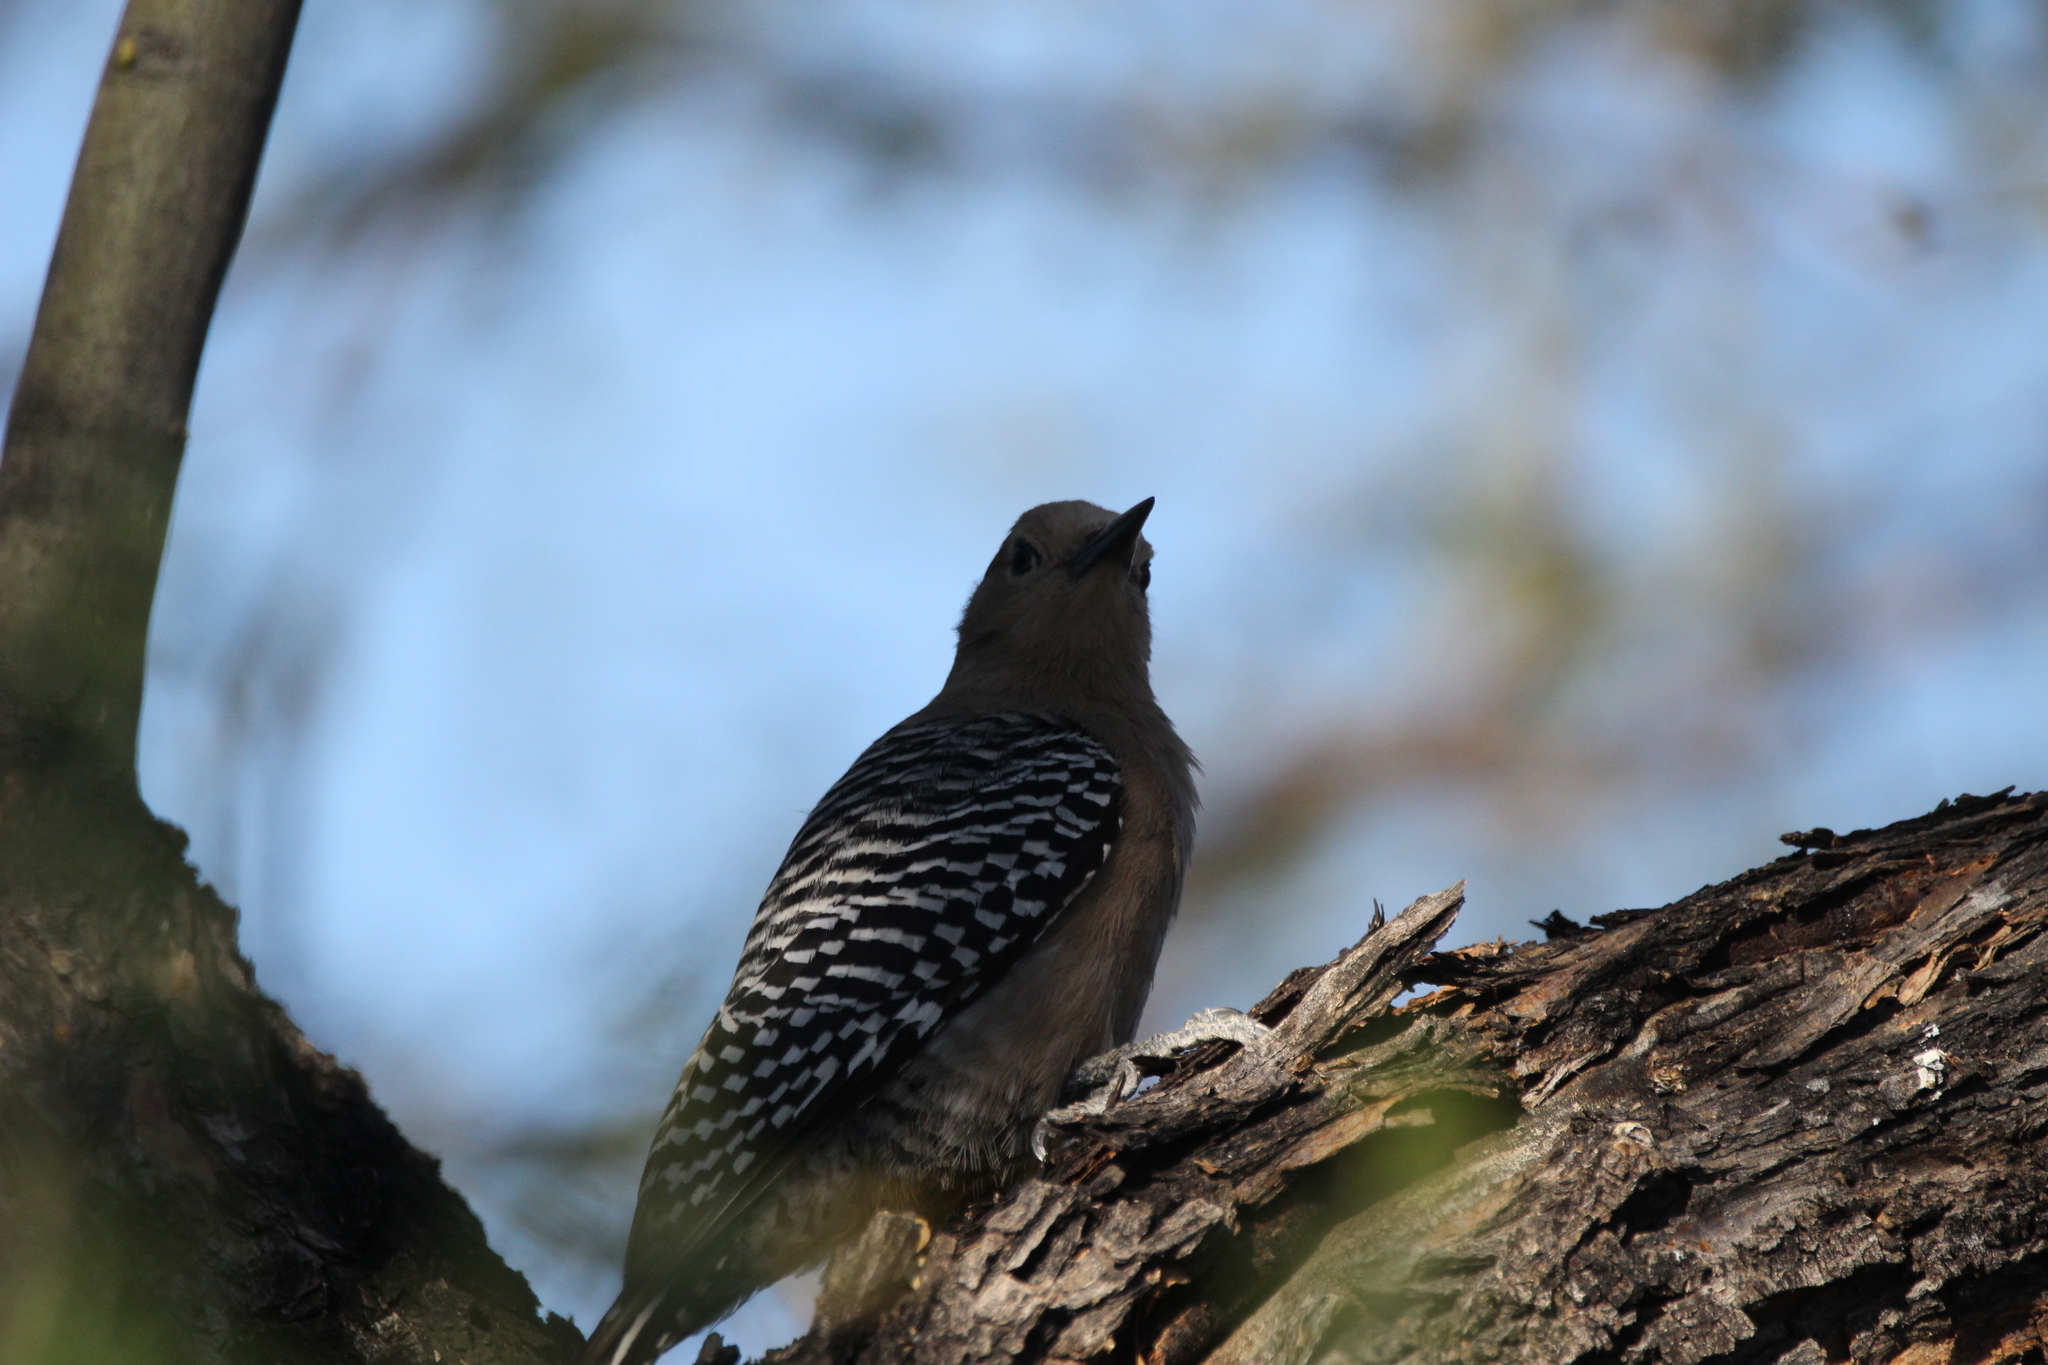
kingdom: Animalia
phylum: Chordata
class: Aves
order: Piciformes
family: Picidae
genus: Melanerpes
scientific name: Melanerpes uropygialis
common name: Gila woodpecker
